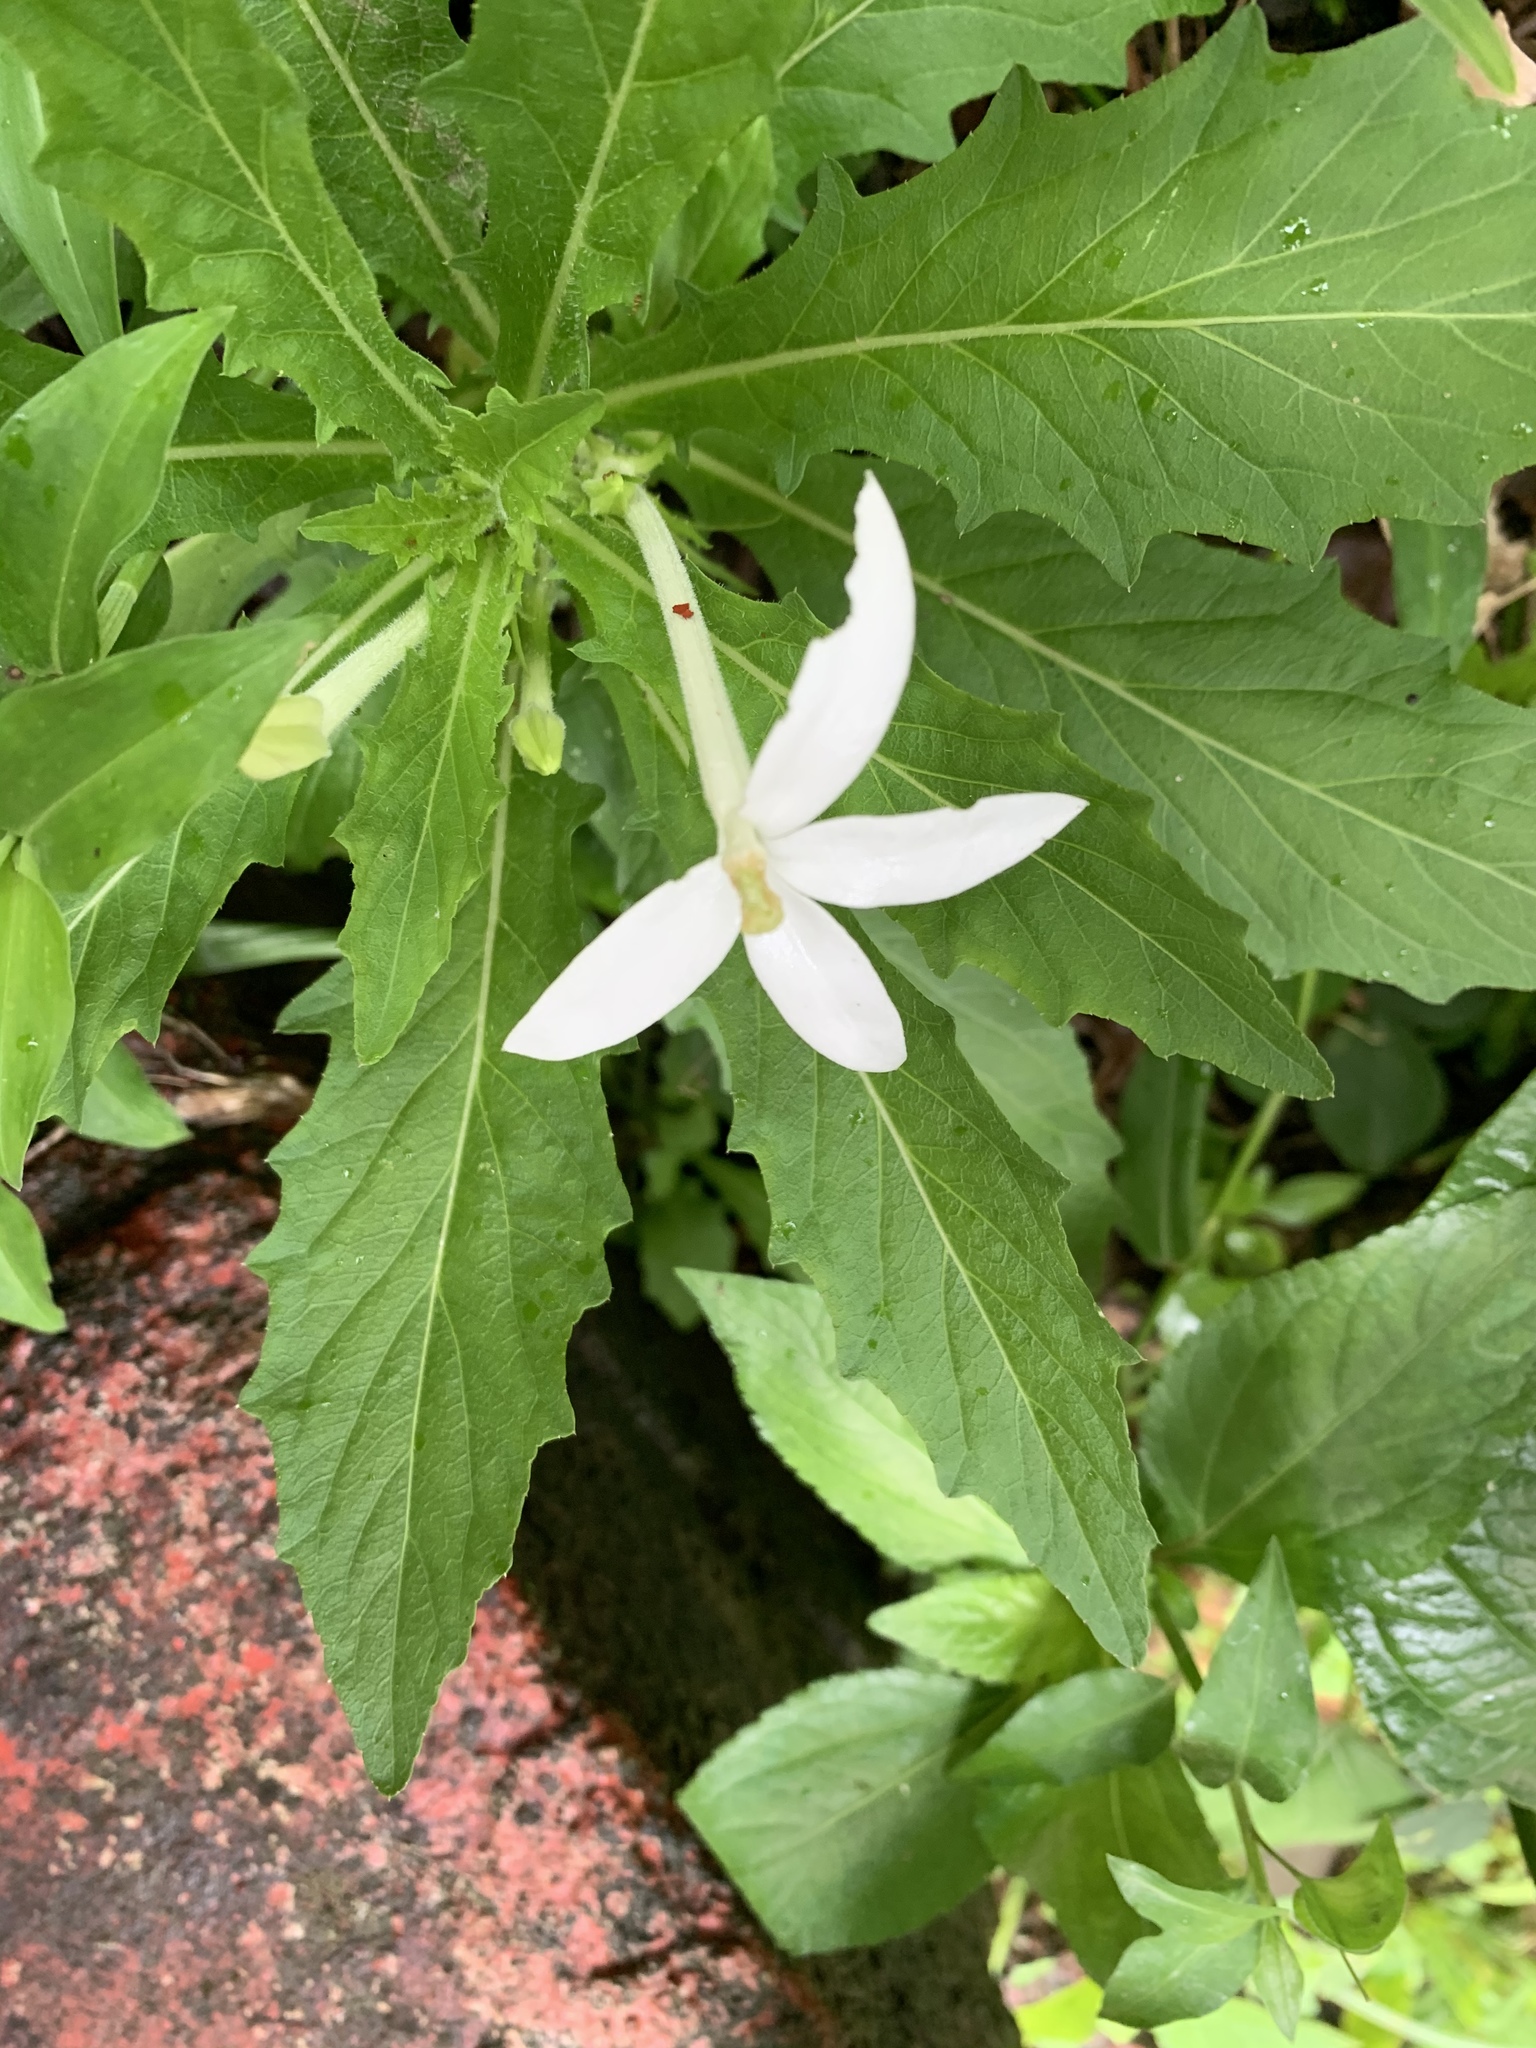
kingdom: Plantae
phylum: Tracheophyta
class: Magnoliopsida
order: Asterales
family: Campanulaceae
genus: Hippobroma
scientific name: Hippobroma longiflora
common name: Madamfate
